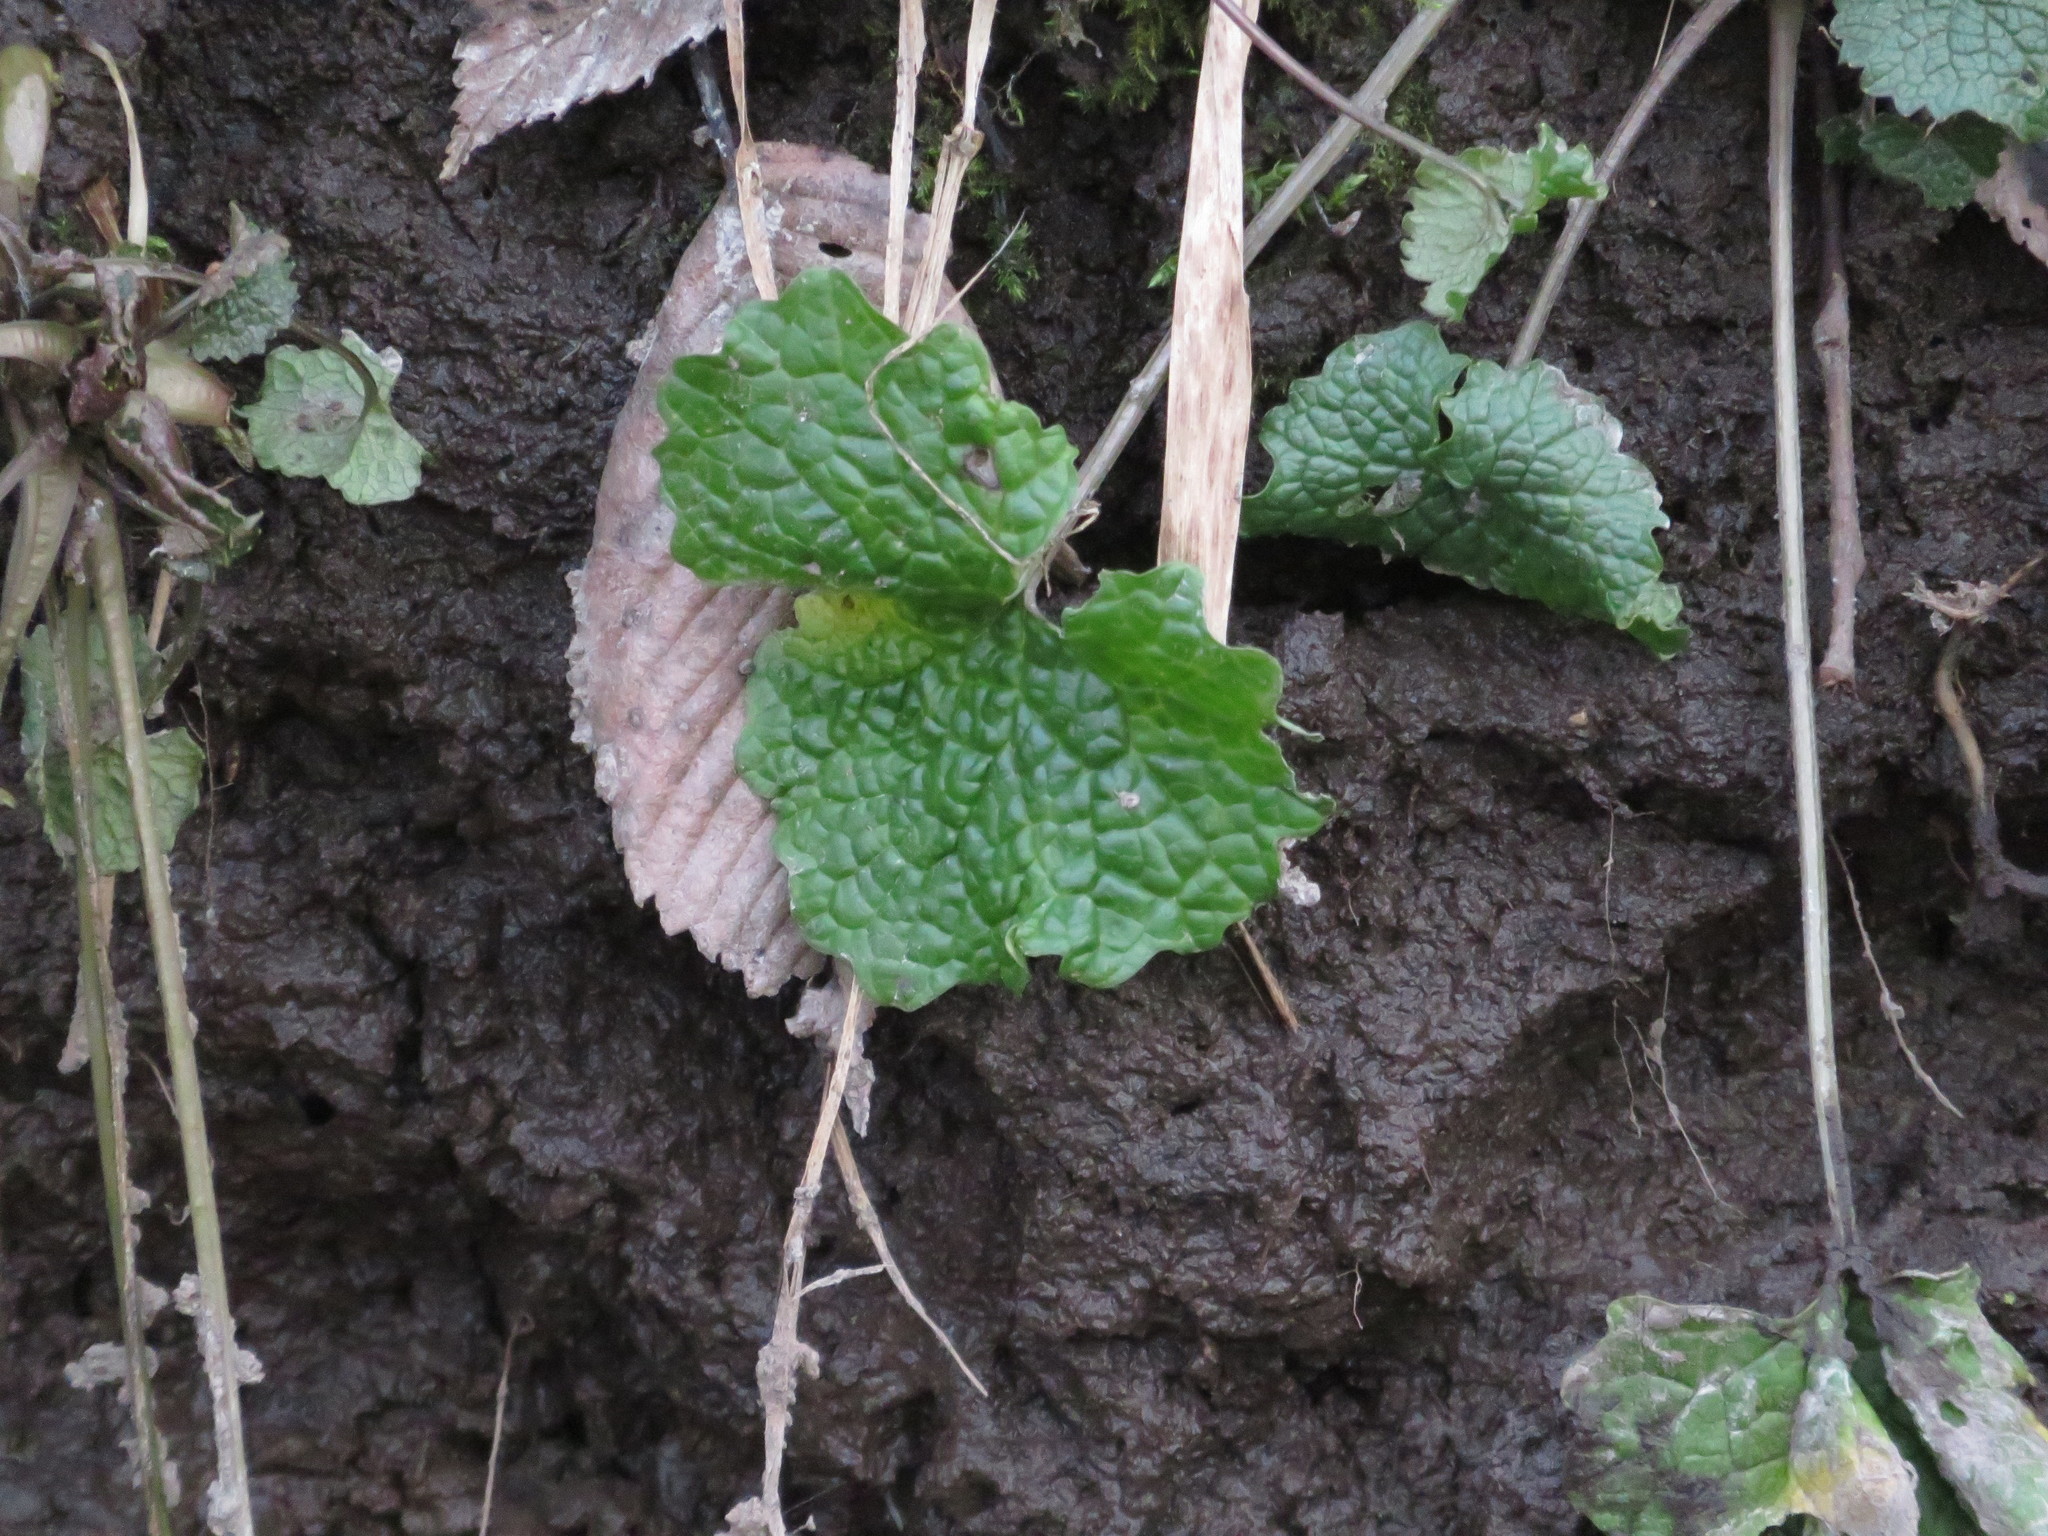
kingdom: Plantae
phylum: Tracheophyta
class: Magnoliopsida
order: Brassicales
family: Brassicaceae
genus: Alliaria
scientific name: Alliaria petiolata
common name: Garlic mustard
